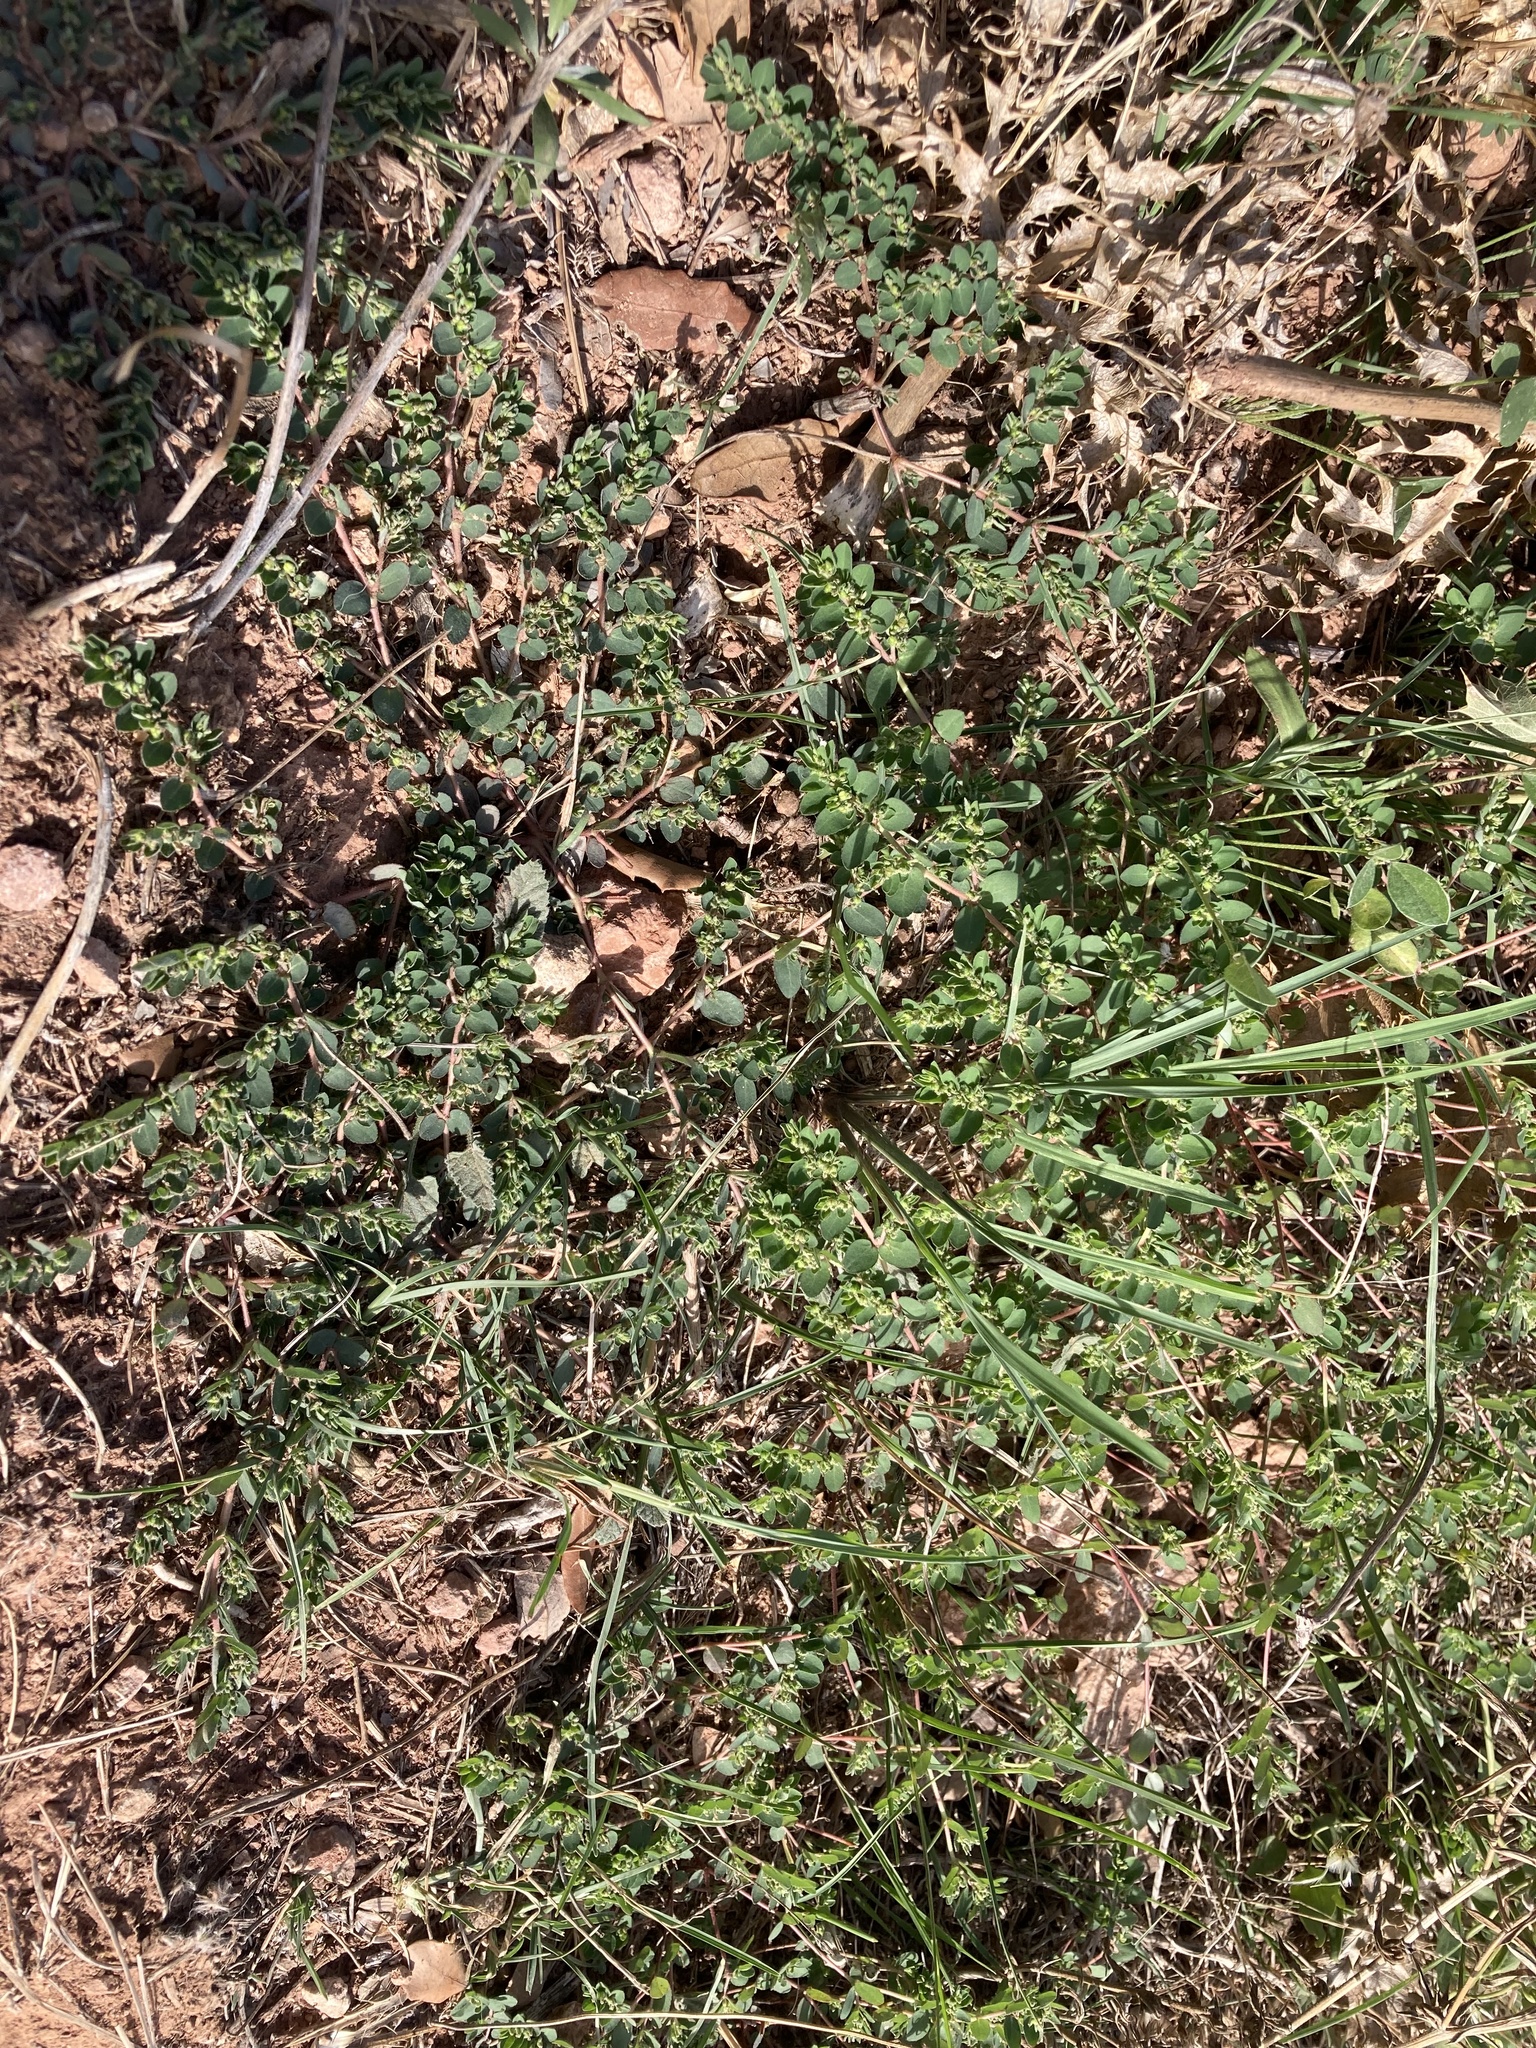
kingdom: Plantae
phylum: Tracheophyta
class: Magnoliopsida
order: Malpighiales
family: Euphorbiaceae
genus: Euphorbia
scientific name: Euphorbia prostrata
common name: Prostrate sandmat
